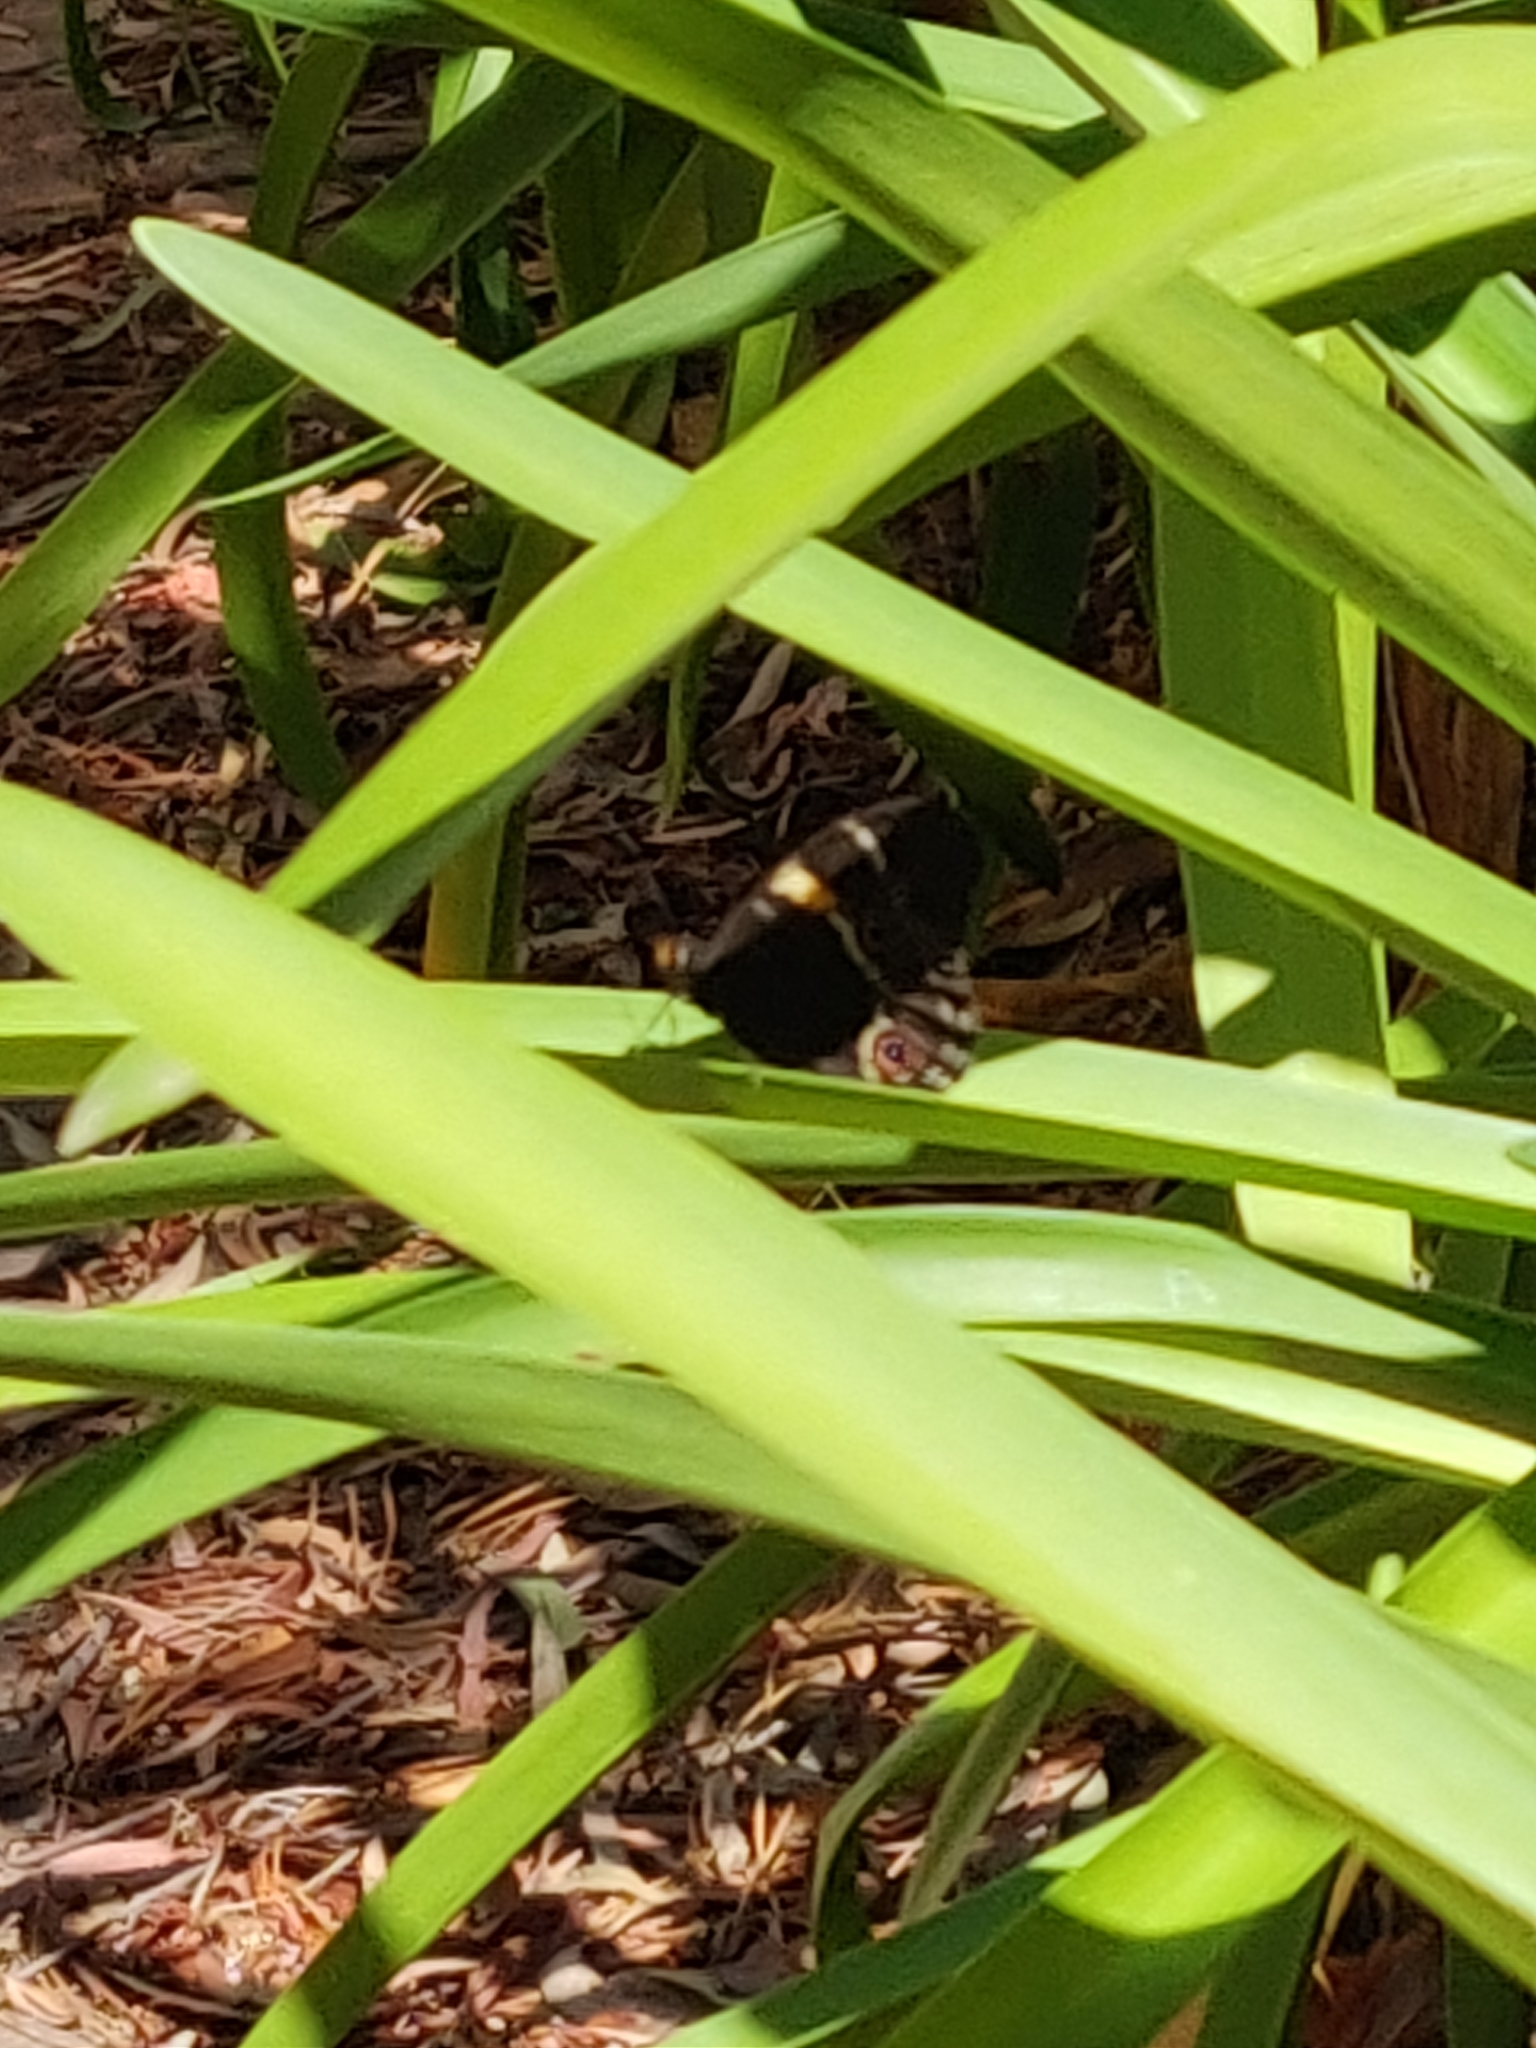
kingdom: Animalia
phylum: Arthropoda
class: Insecta
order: Lepidoptera
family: Nymphalidae
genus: Tisiphone
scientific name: Tisiphone abeona
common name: Swordgrass brown
